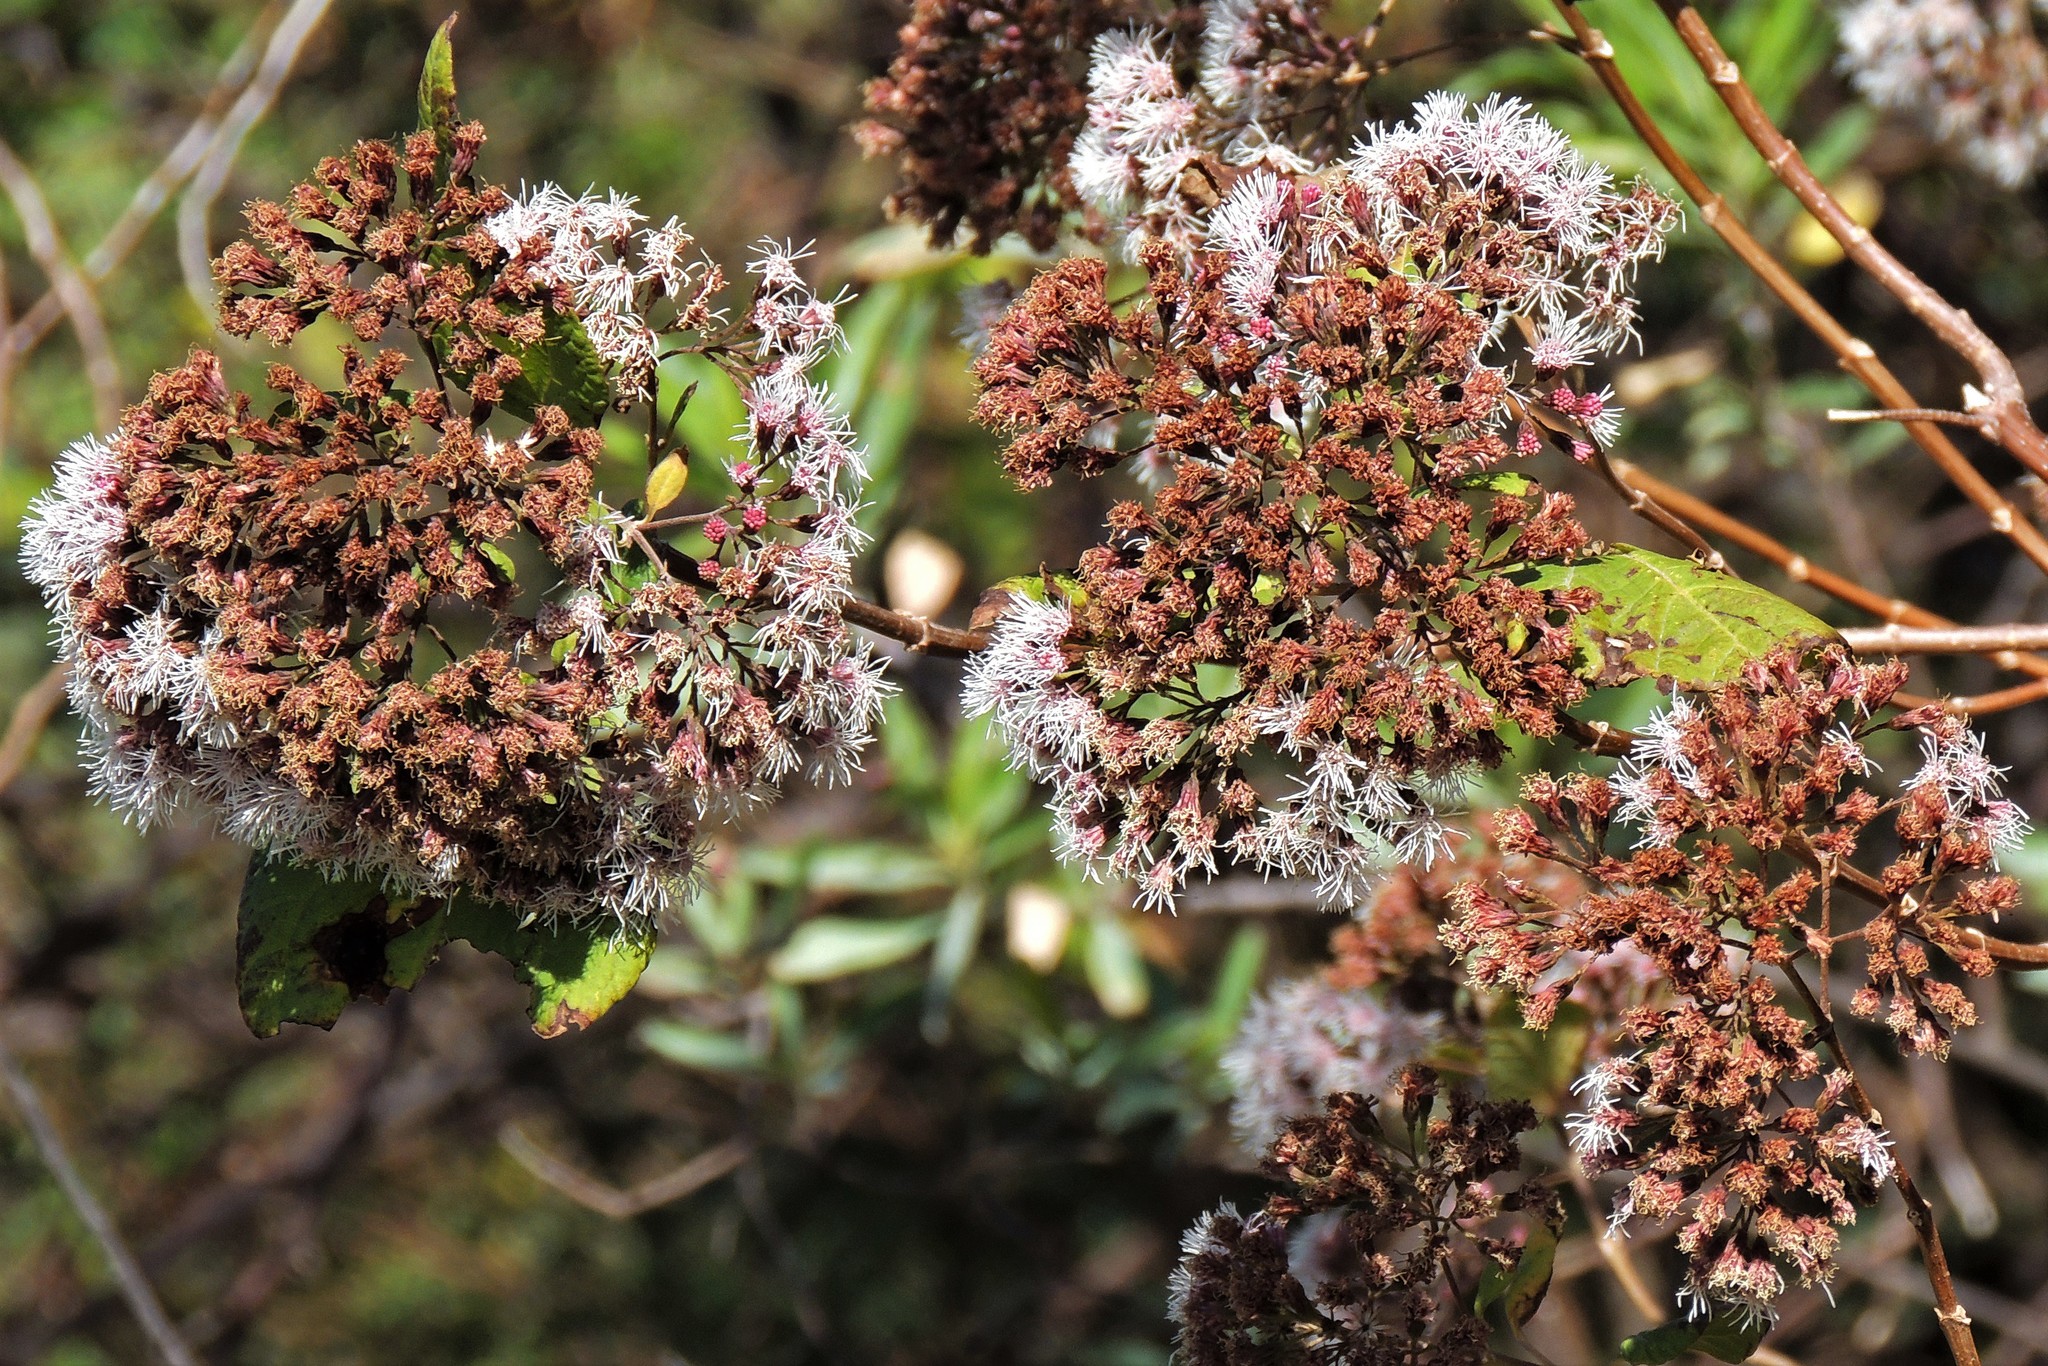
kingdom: Plantae
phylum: Tracheophyta
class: Magnoliopsida
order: Asterales
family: Asteraceae
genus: Kaunia
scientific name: Kaunia lasiophthalma
